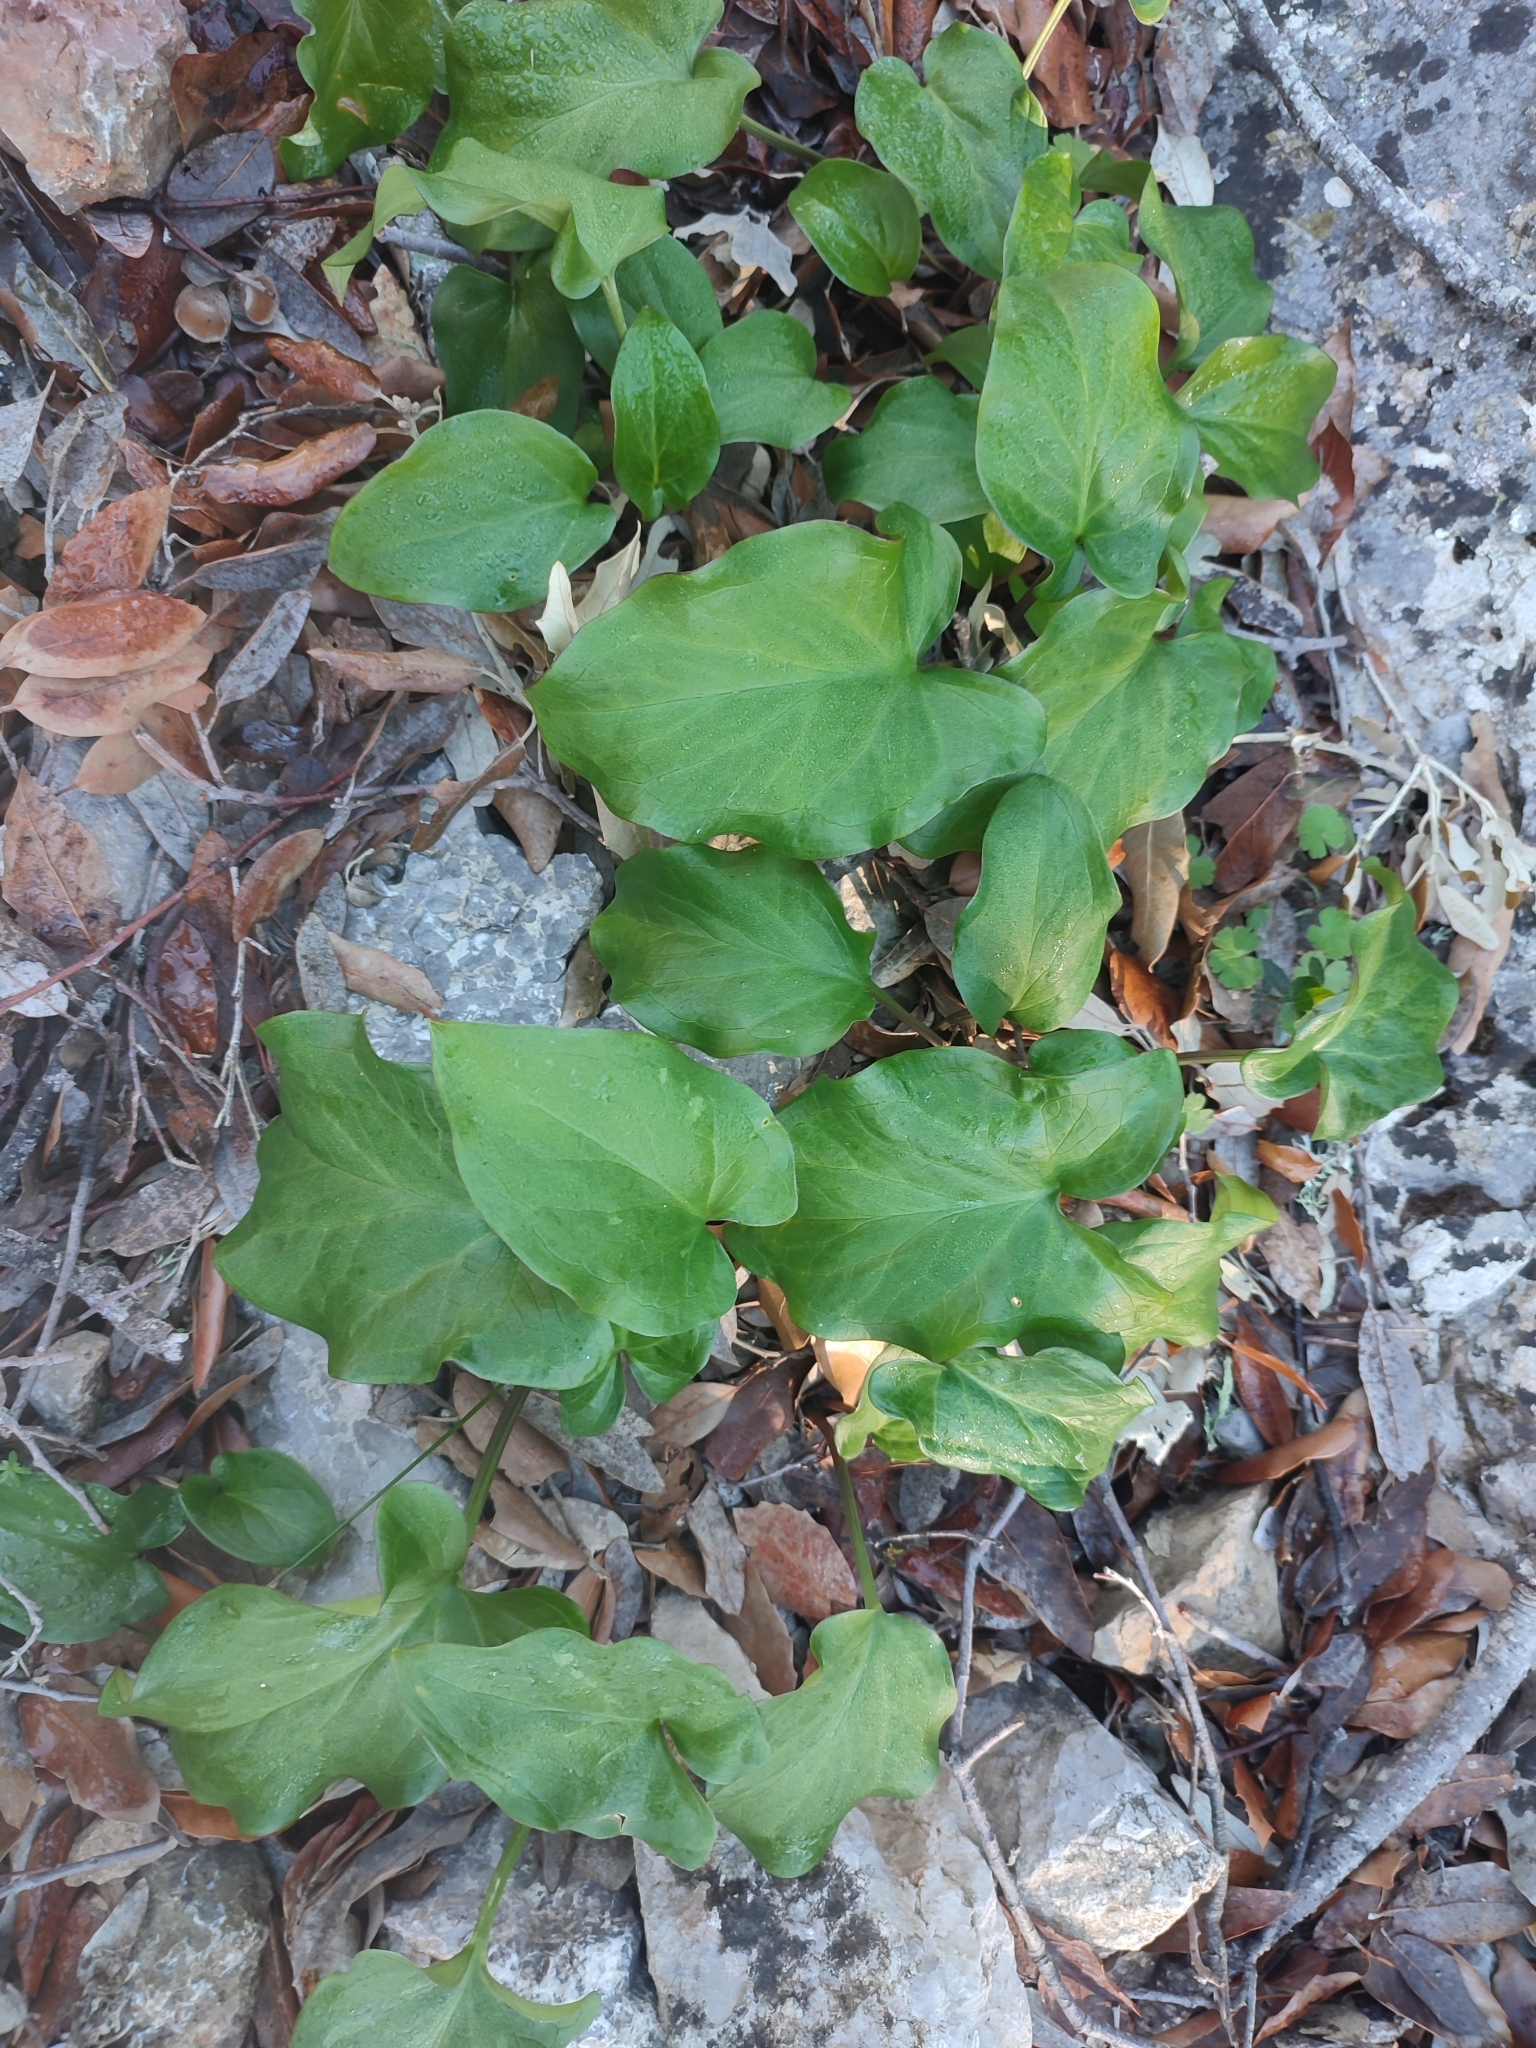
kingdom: Plantae
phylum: Tracheophyta
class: Liliopsida
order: Alismatales
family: Araceae
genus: Arisarum
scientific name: Arisarum vulgare
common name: Common arisarum
